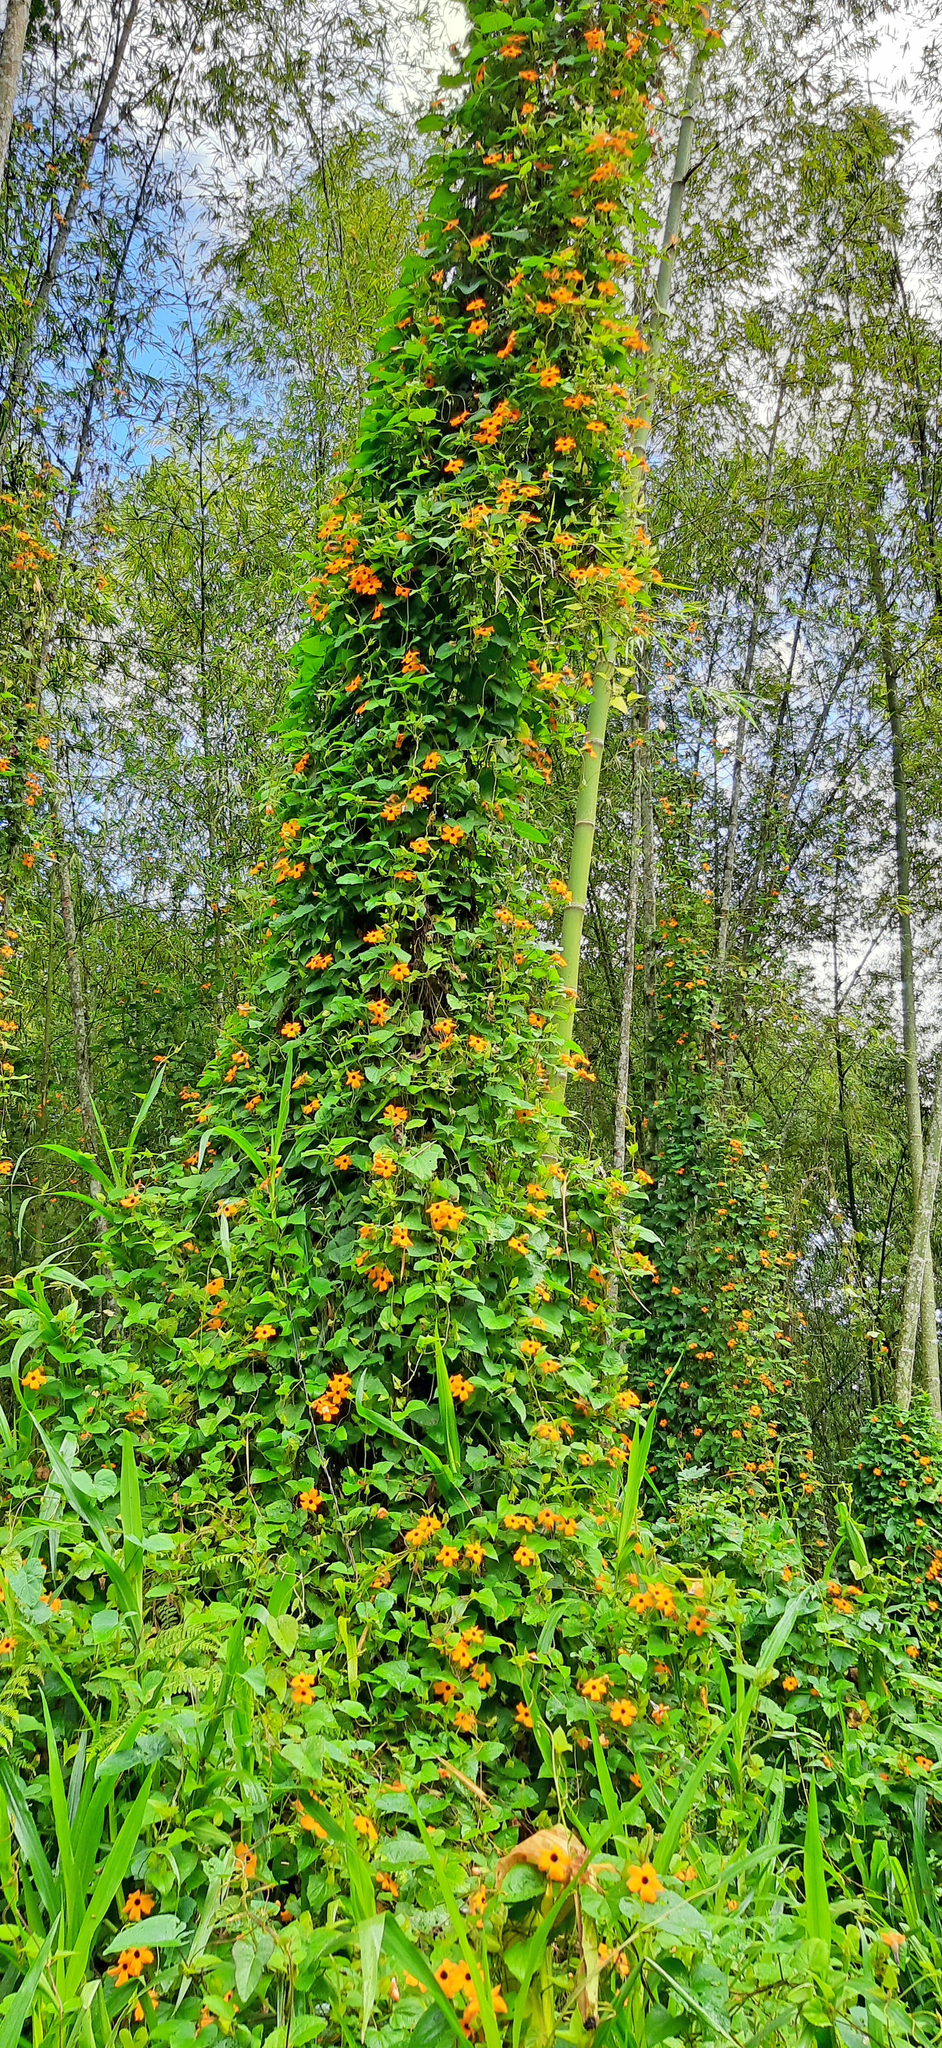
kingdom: Plantae
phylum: Tracheophyta
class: Magnoliopsida
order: Lamiales
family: Acanthaceae
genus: Thunbergia
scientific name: Thunbergia alata
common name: Blackeyed susan vine
